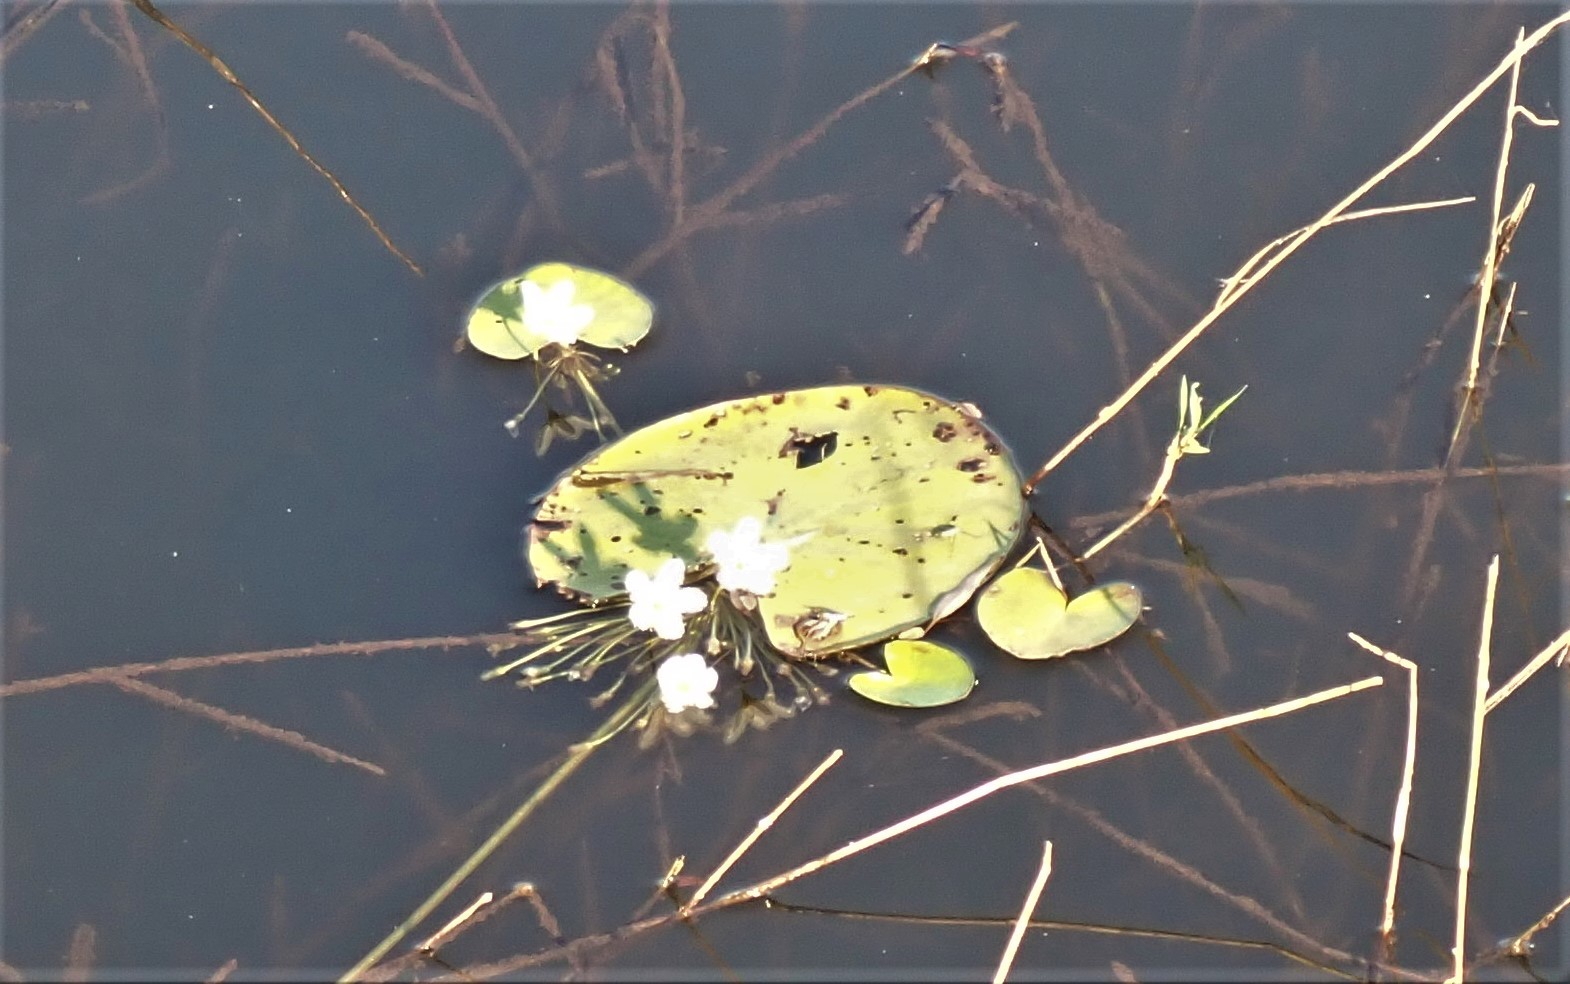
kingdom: Plantae
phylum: Tracheophyta
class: Magnoliopsida
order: Asterales
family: Menyanthaceae
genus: Nymphoides
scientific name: Nymphoides indica
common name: Water-snowflake
